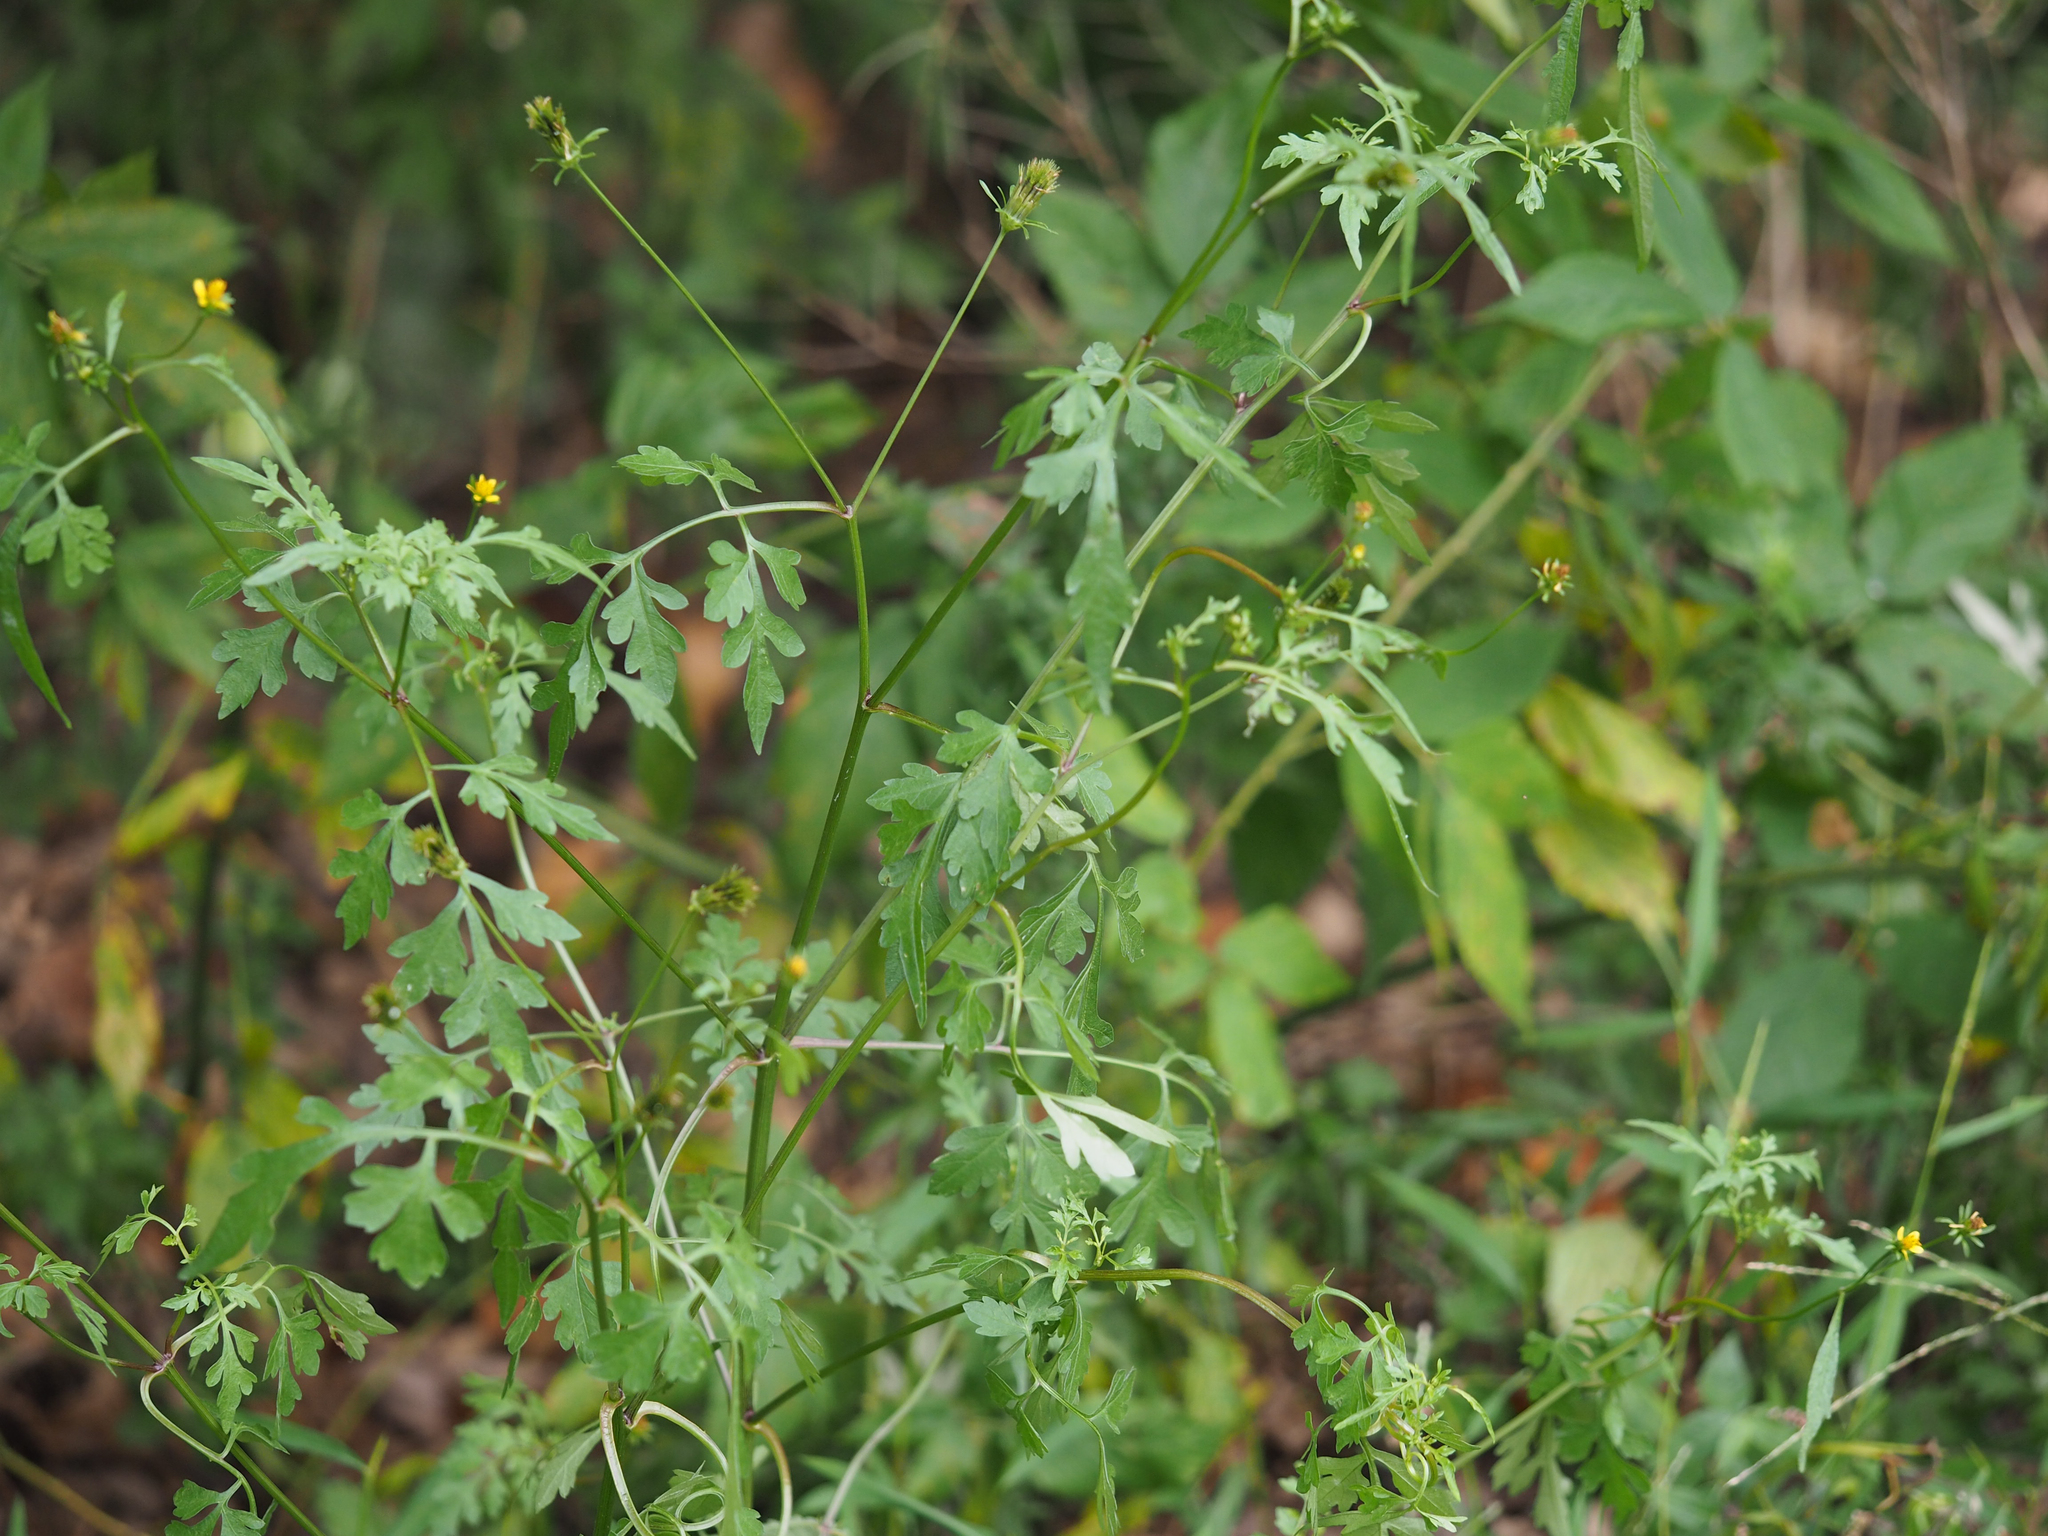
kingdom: Plantae
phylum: Tracheophyta
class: Magnoliopsida
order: Asterales
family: Asteraceae
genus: Bidens
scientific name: Bidens bipinnata
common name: Spanish-needles
